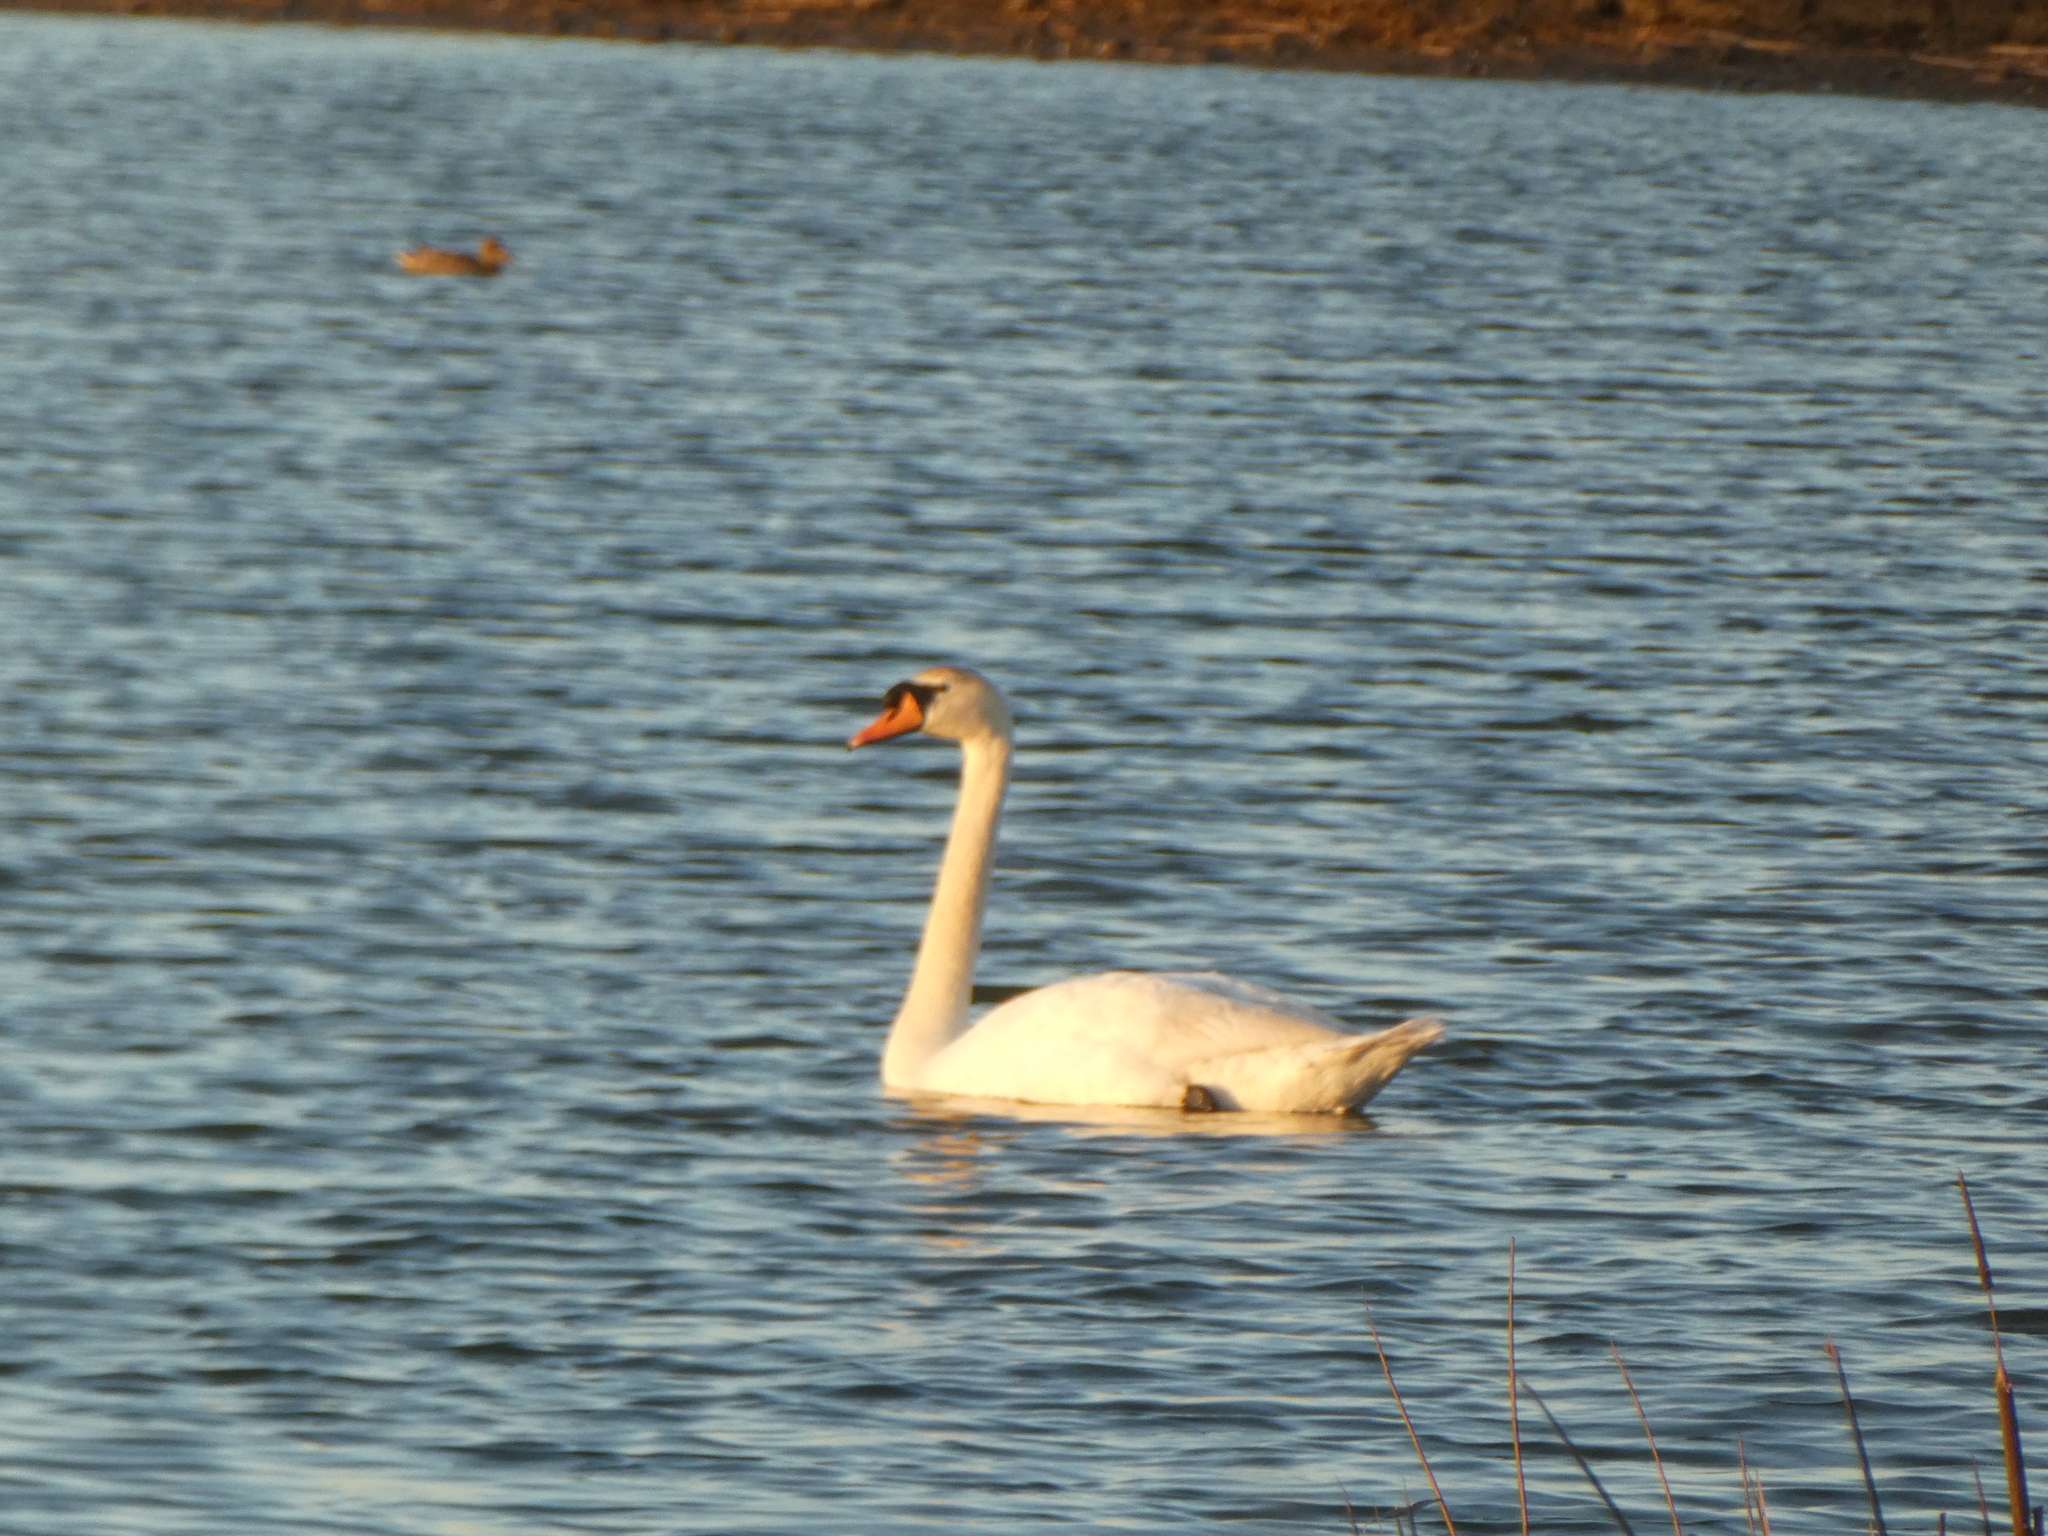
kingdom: Animalia
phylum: Chordata
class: Aves
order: Anseriformes
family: Anatidae
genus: Cygnus
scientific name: Cygnus olor
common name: Mute swan
